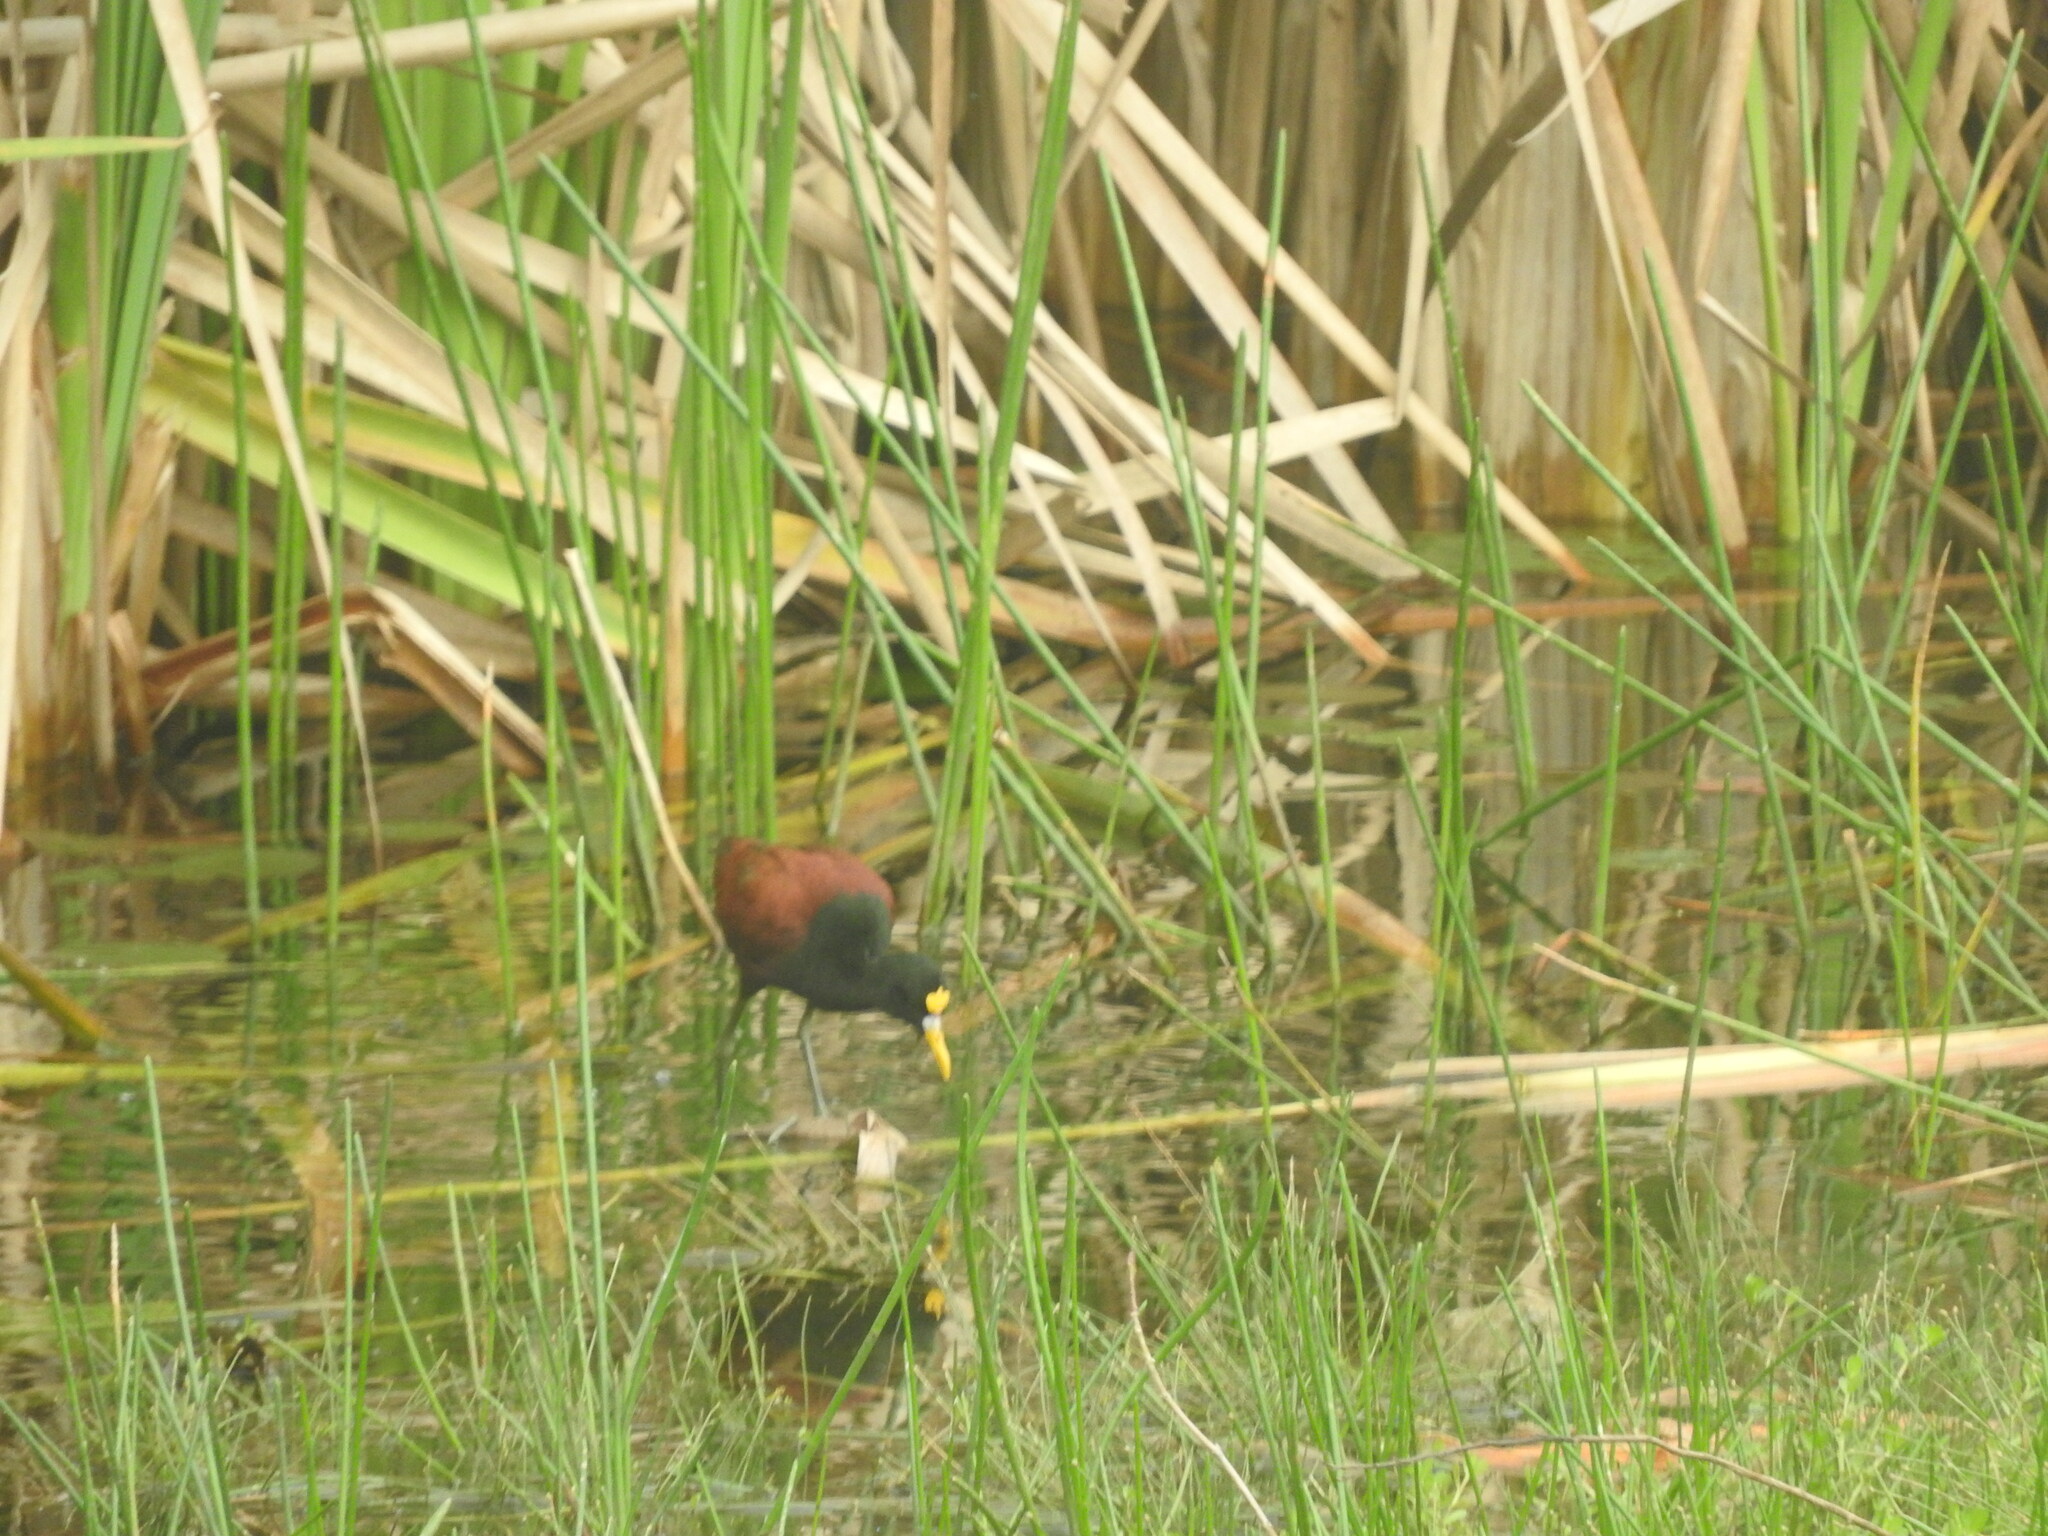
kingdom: Animalia
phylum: Chordata
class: Aves
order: Charadriiformes
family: Jacanidae
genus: Jacana
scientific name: Jacana spinosa
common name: Northern jacana
